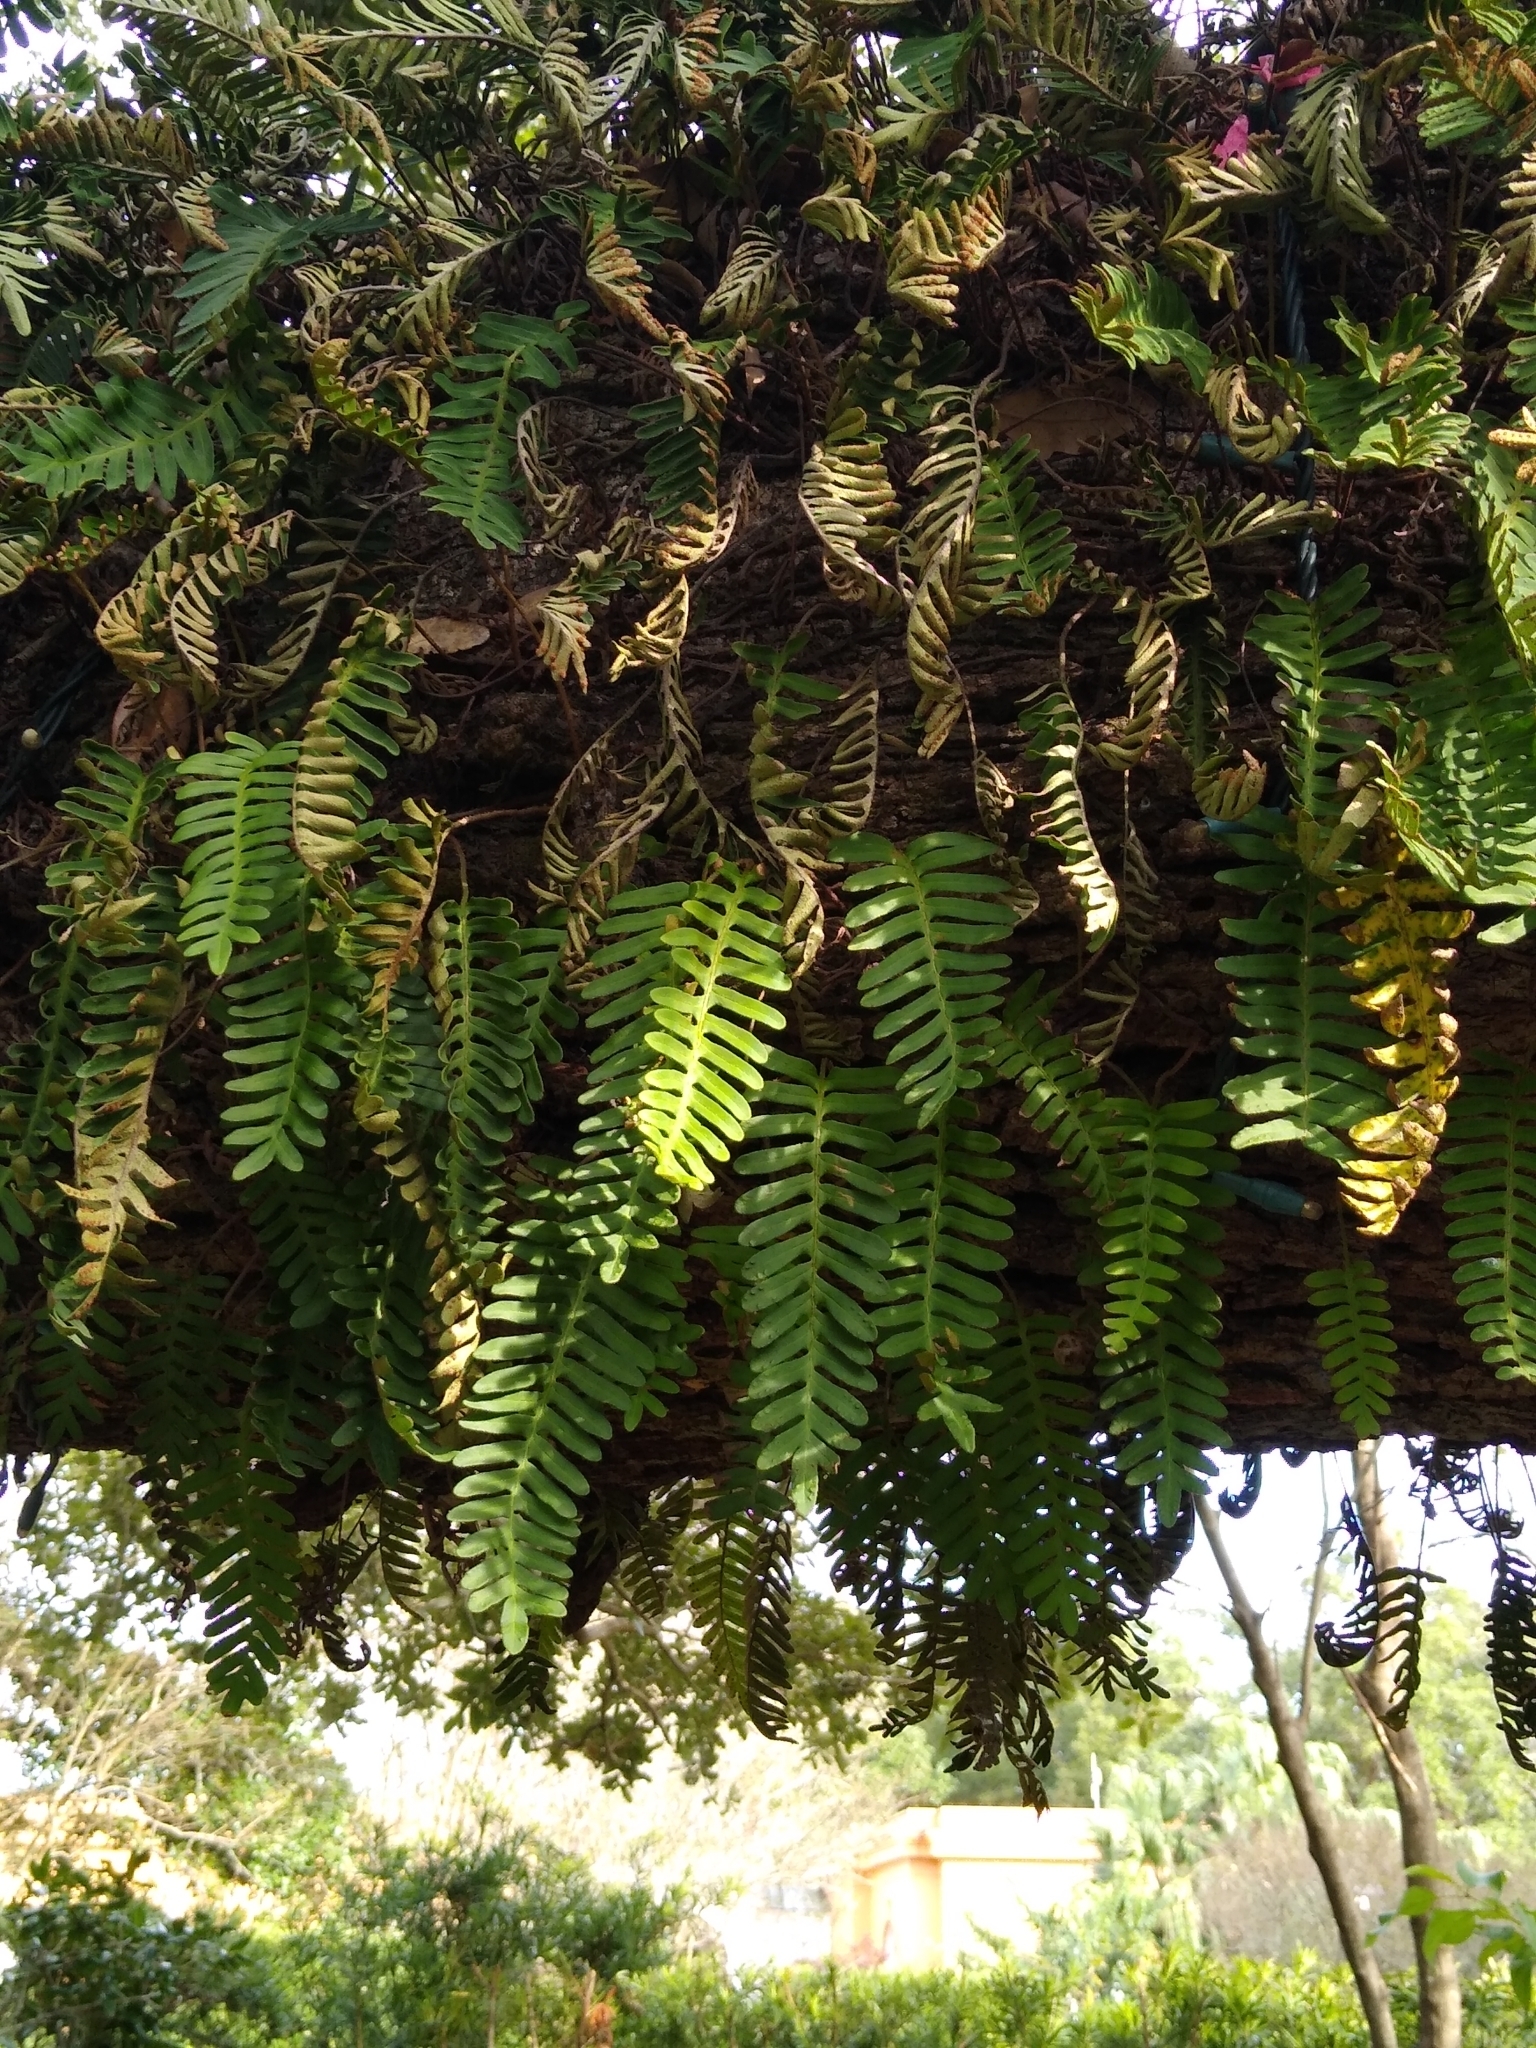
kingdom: Plantae
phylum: Tracheophyta
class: Polypodiopsida
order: Polypodiales
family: Polypodiaceae
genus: Pleopeltis
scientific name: Pleopeltis michauxiana
